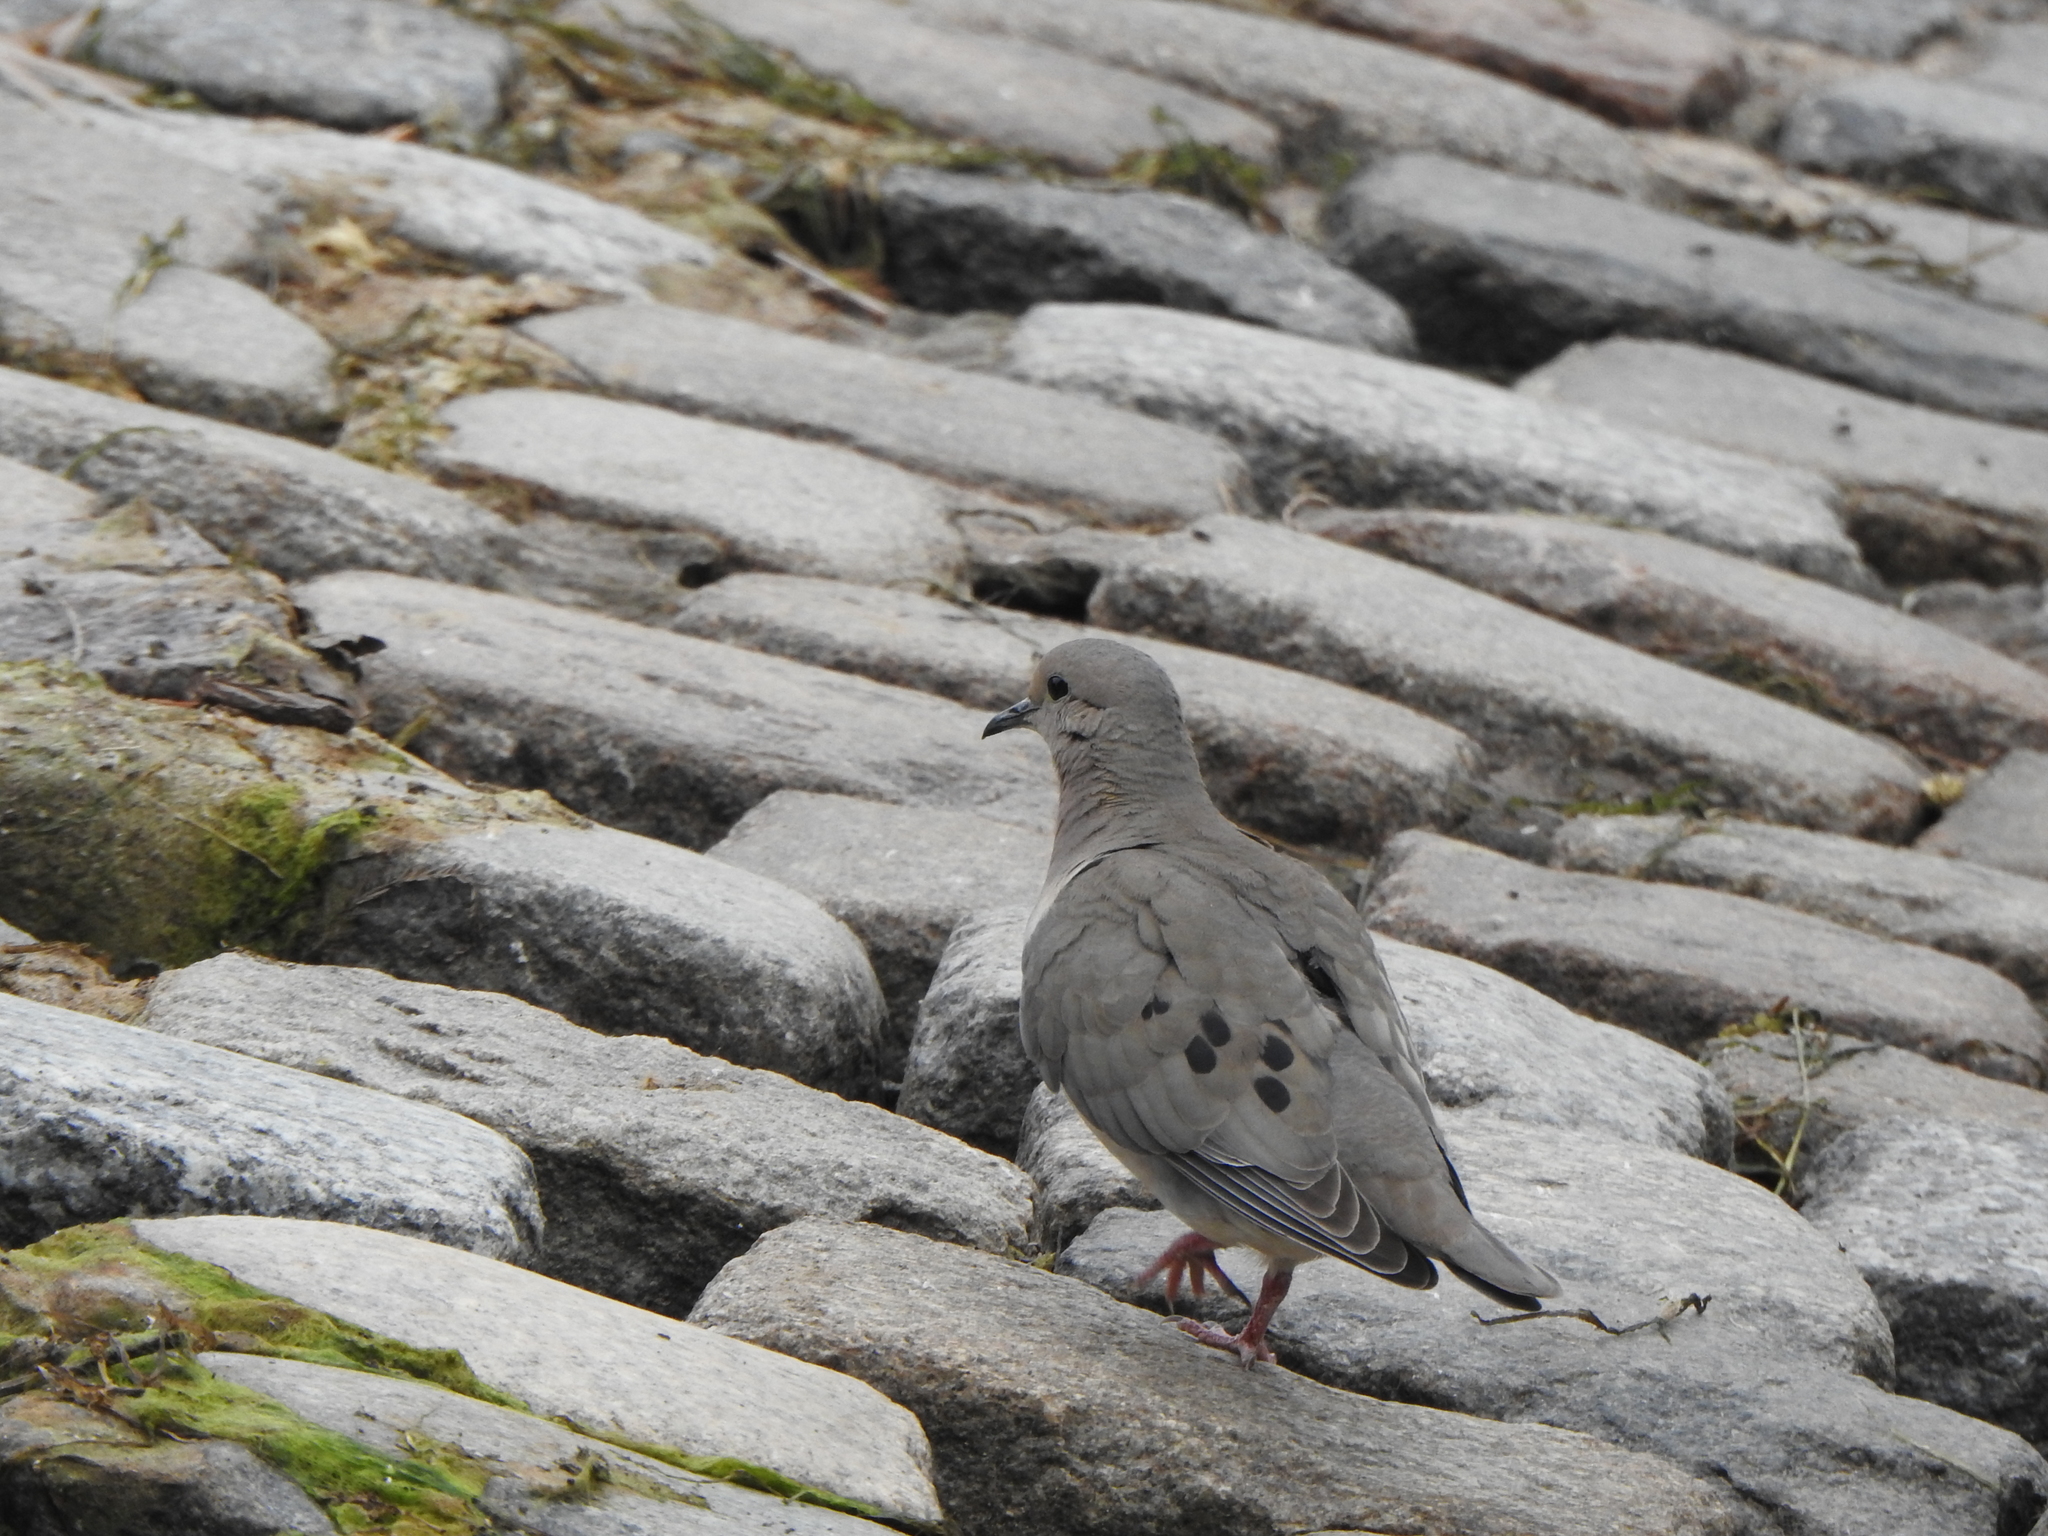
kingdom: Animalia
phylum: Chordata
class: Aves
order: Columbiformes
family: Columbidae
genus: Zenaida
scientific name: Zenaida auriculata
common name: Eared dove
